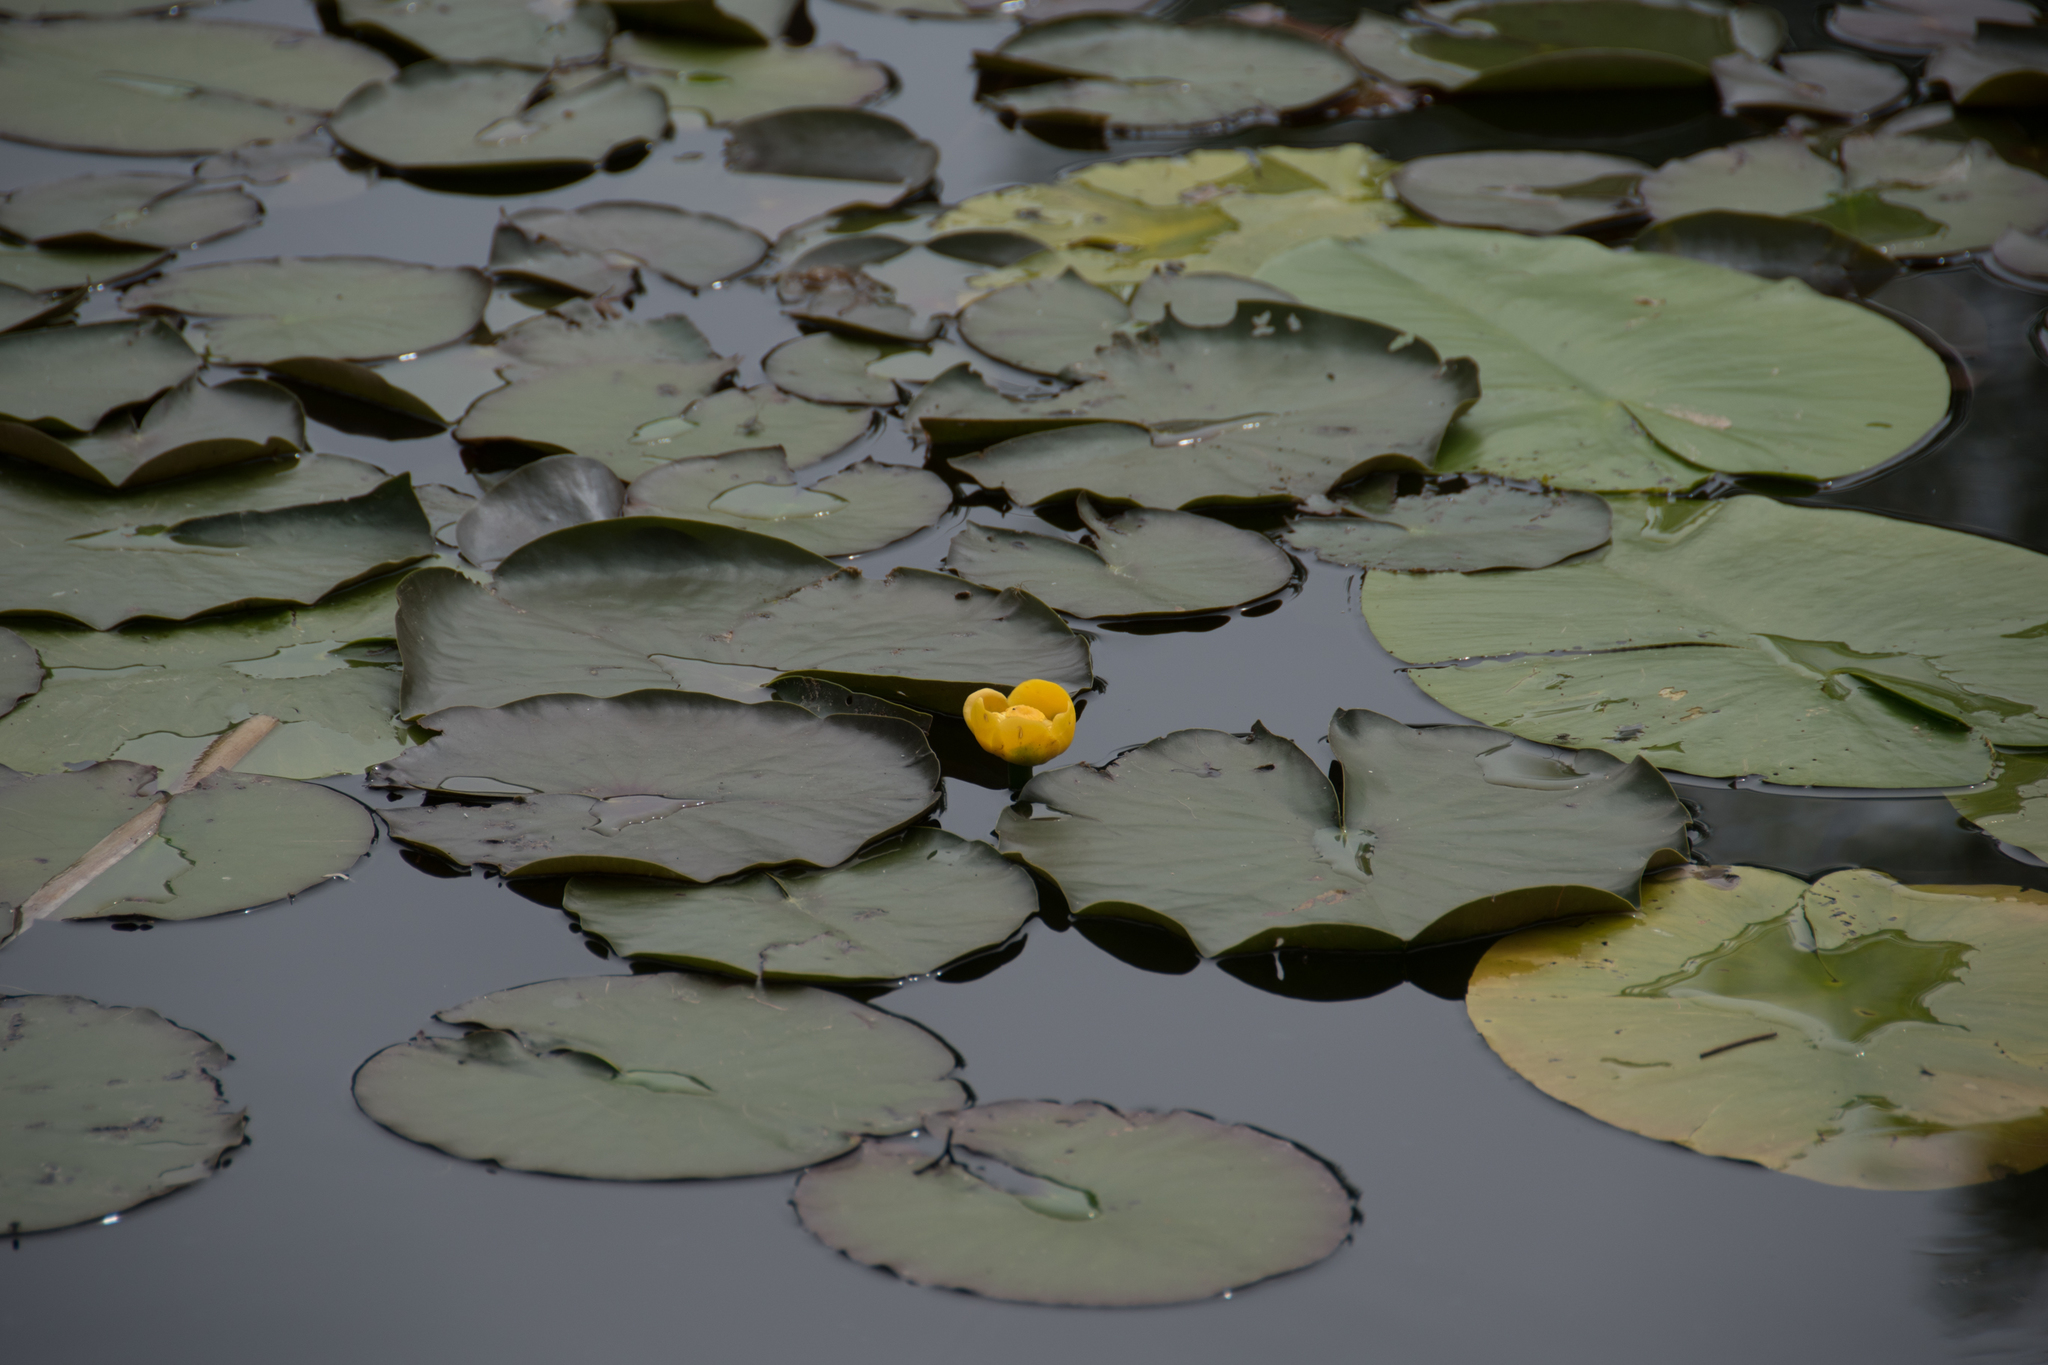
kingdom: Plantae
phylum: Tracheophyta
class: Magnoliopsida
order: Nymphaeales
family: Nymphaeaceae
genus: Nuphar
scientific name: Nuphar lutea
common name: Yellow water-lily
